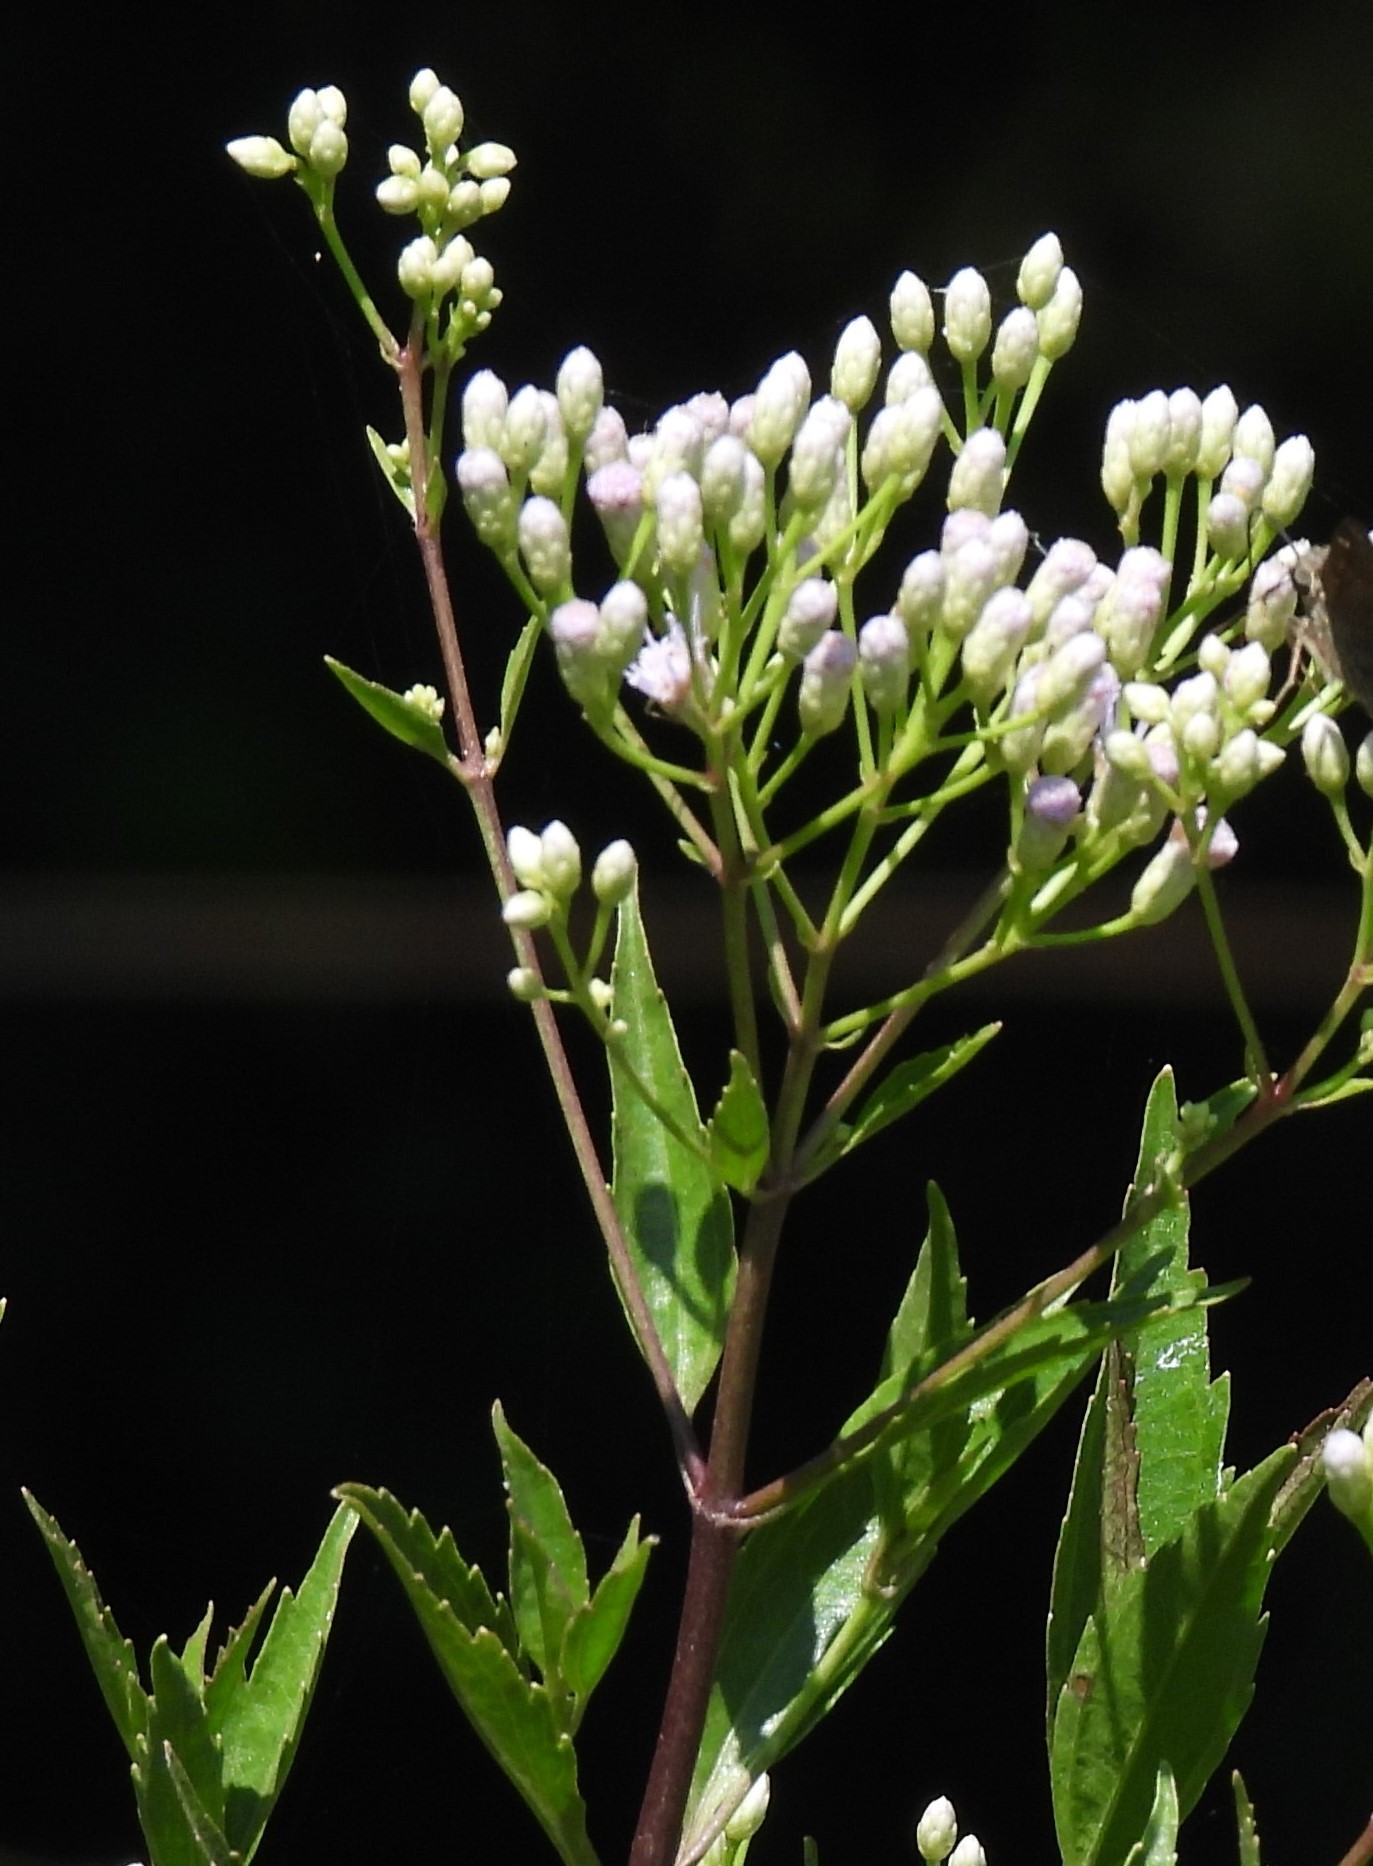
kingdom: Plantae
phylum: Tracheophyta
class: Magnoliopsida
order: Asterales
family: Asteraceae
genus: Chromolaena
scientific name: Chromolaena laevigata
